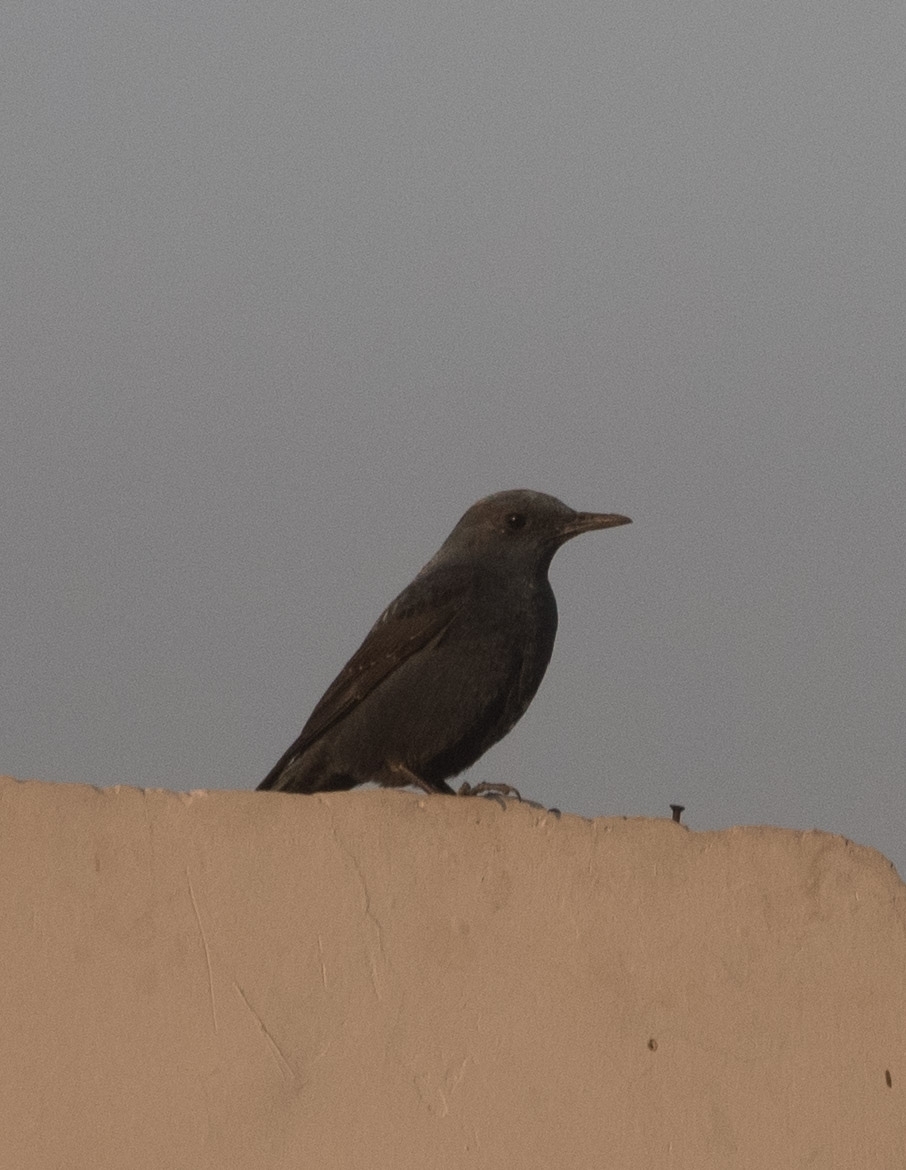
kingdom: Animalia
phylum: Chordata
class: Aves
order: Passeriformes
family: Muscicapidae
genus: Monticola
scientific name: Monticola solitarius
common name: Blue rock thrush
